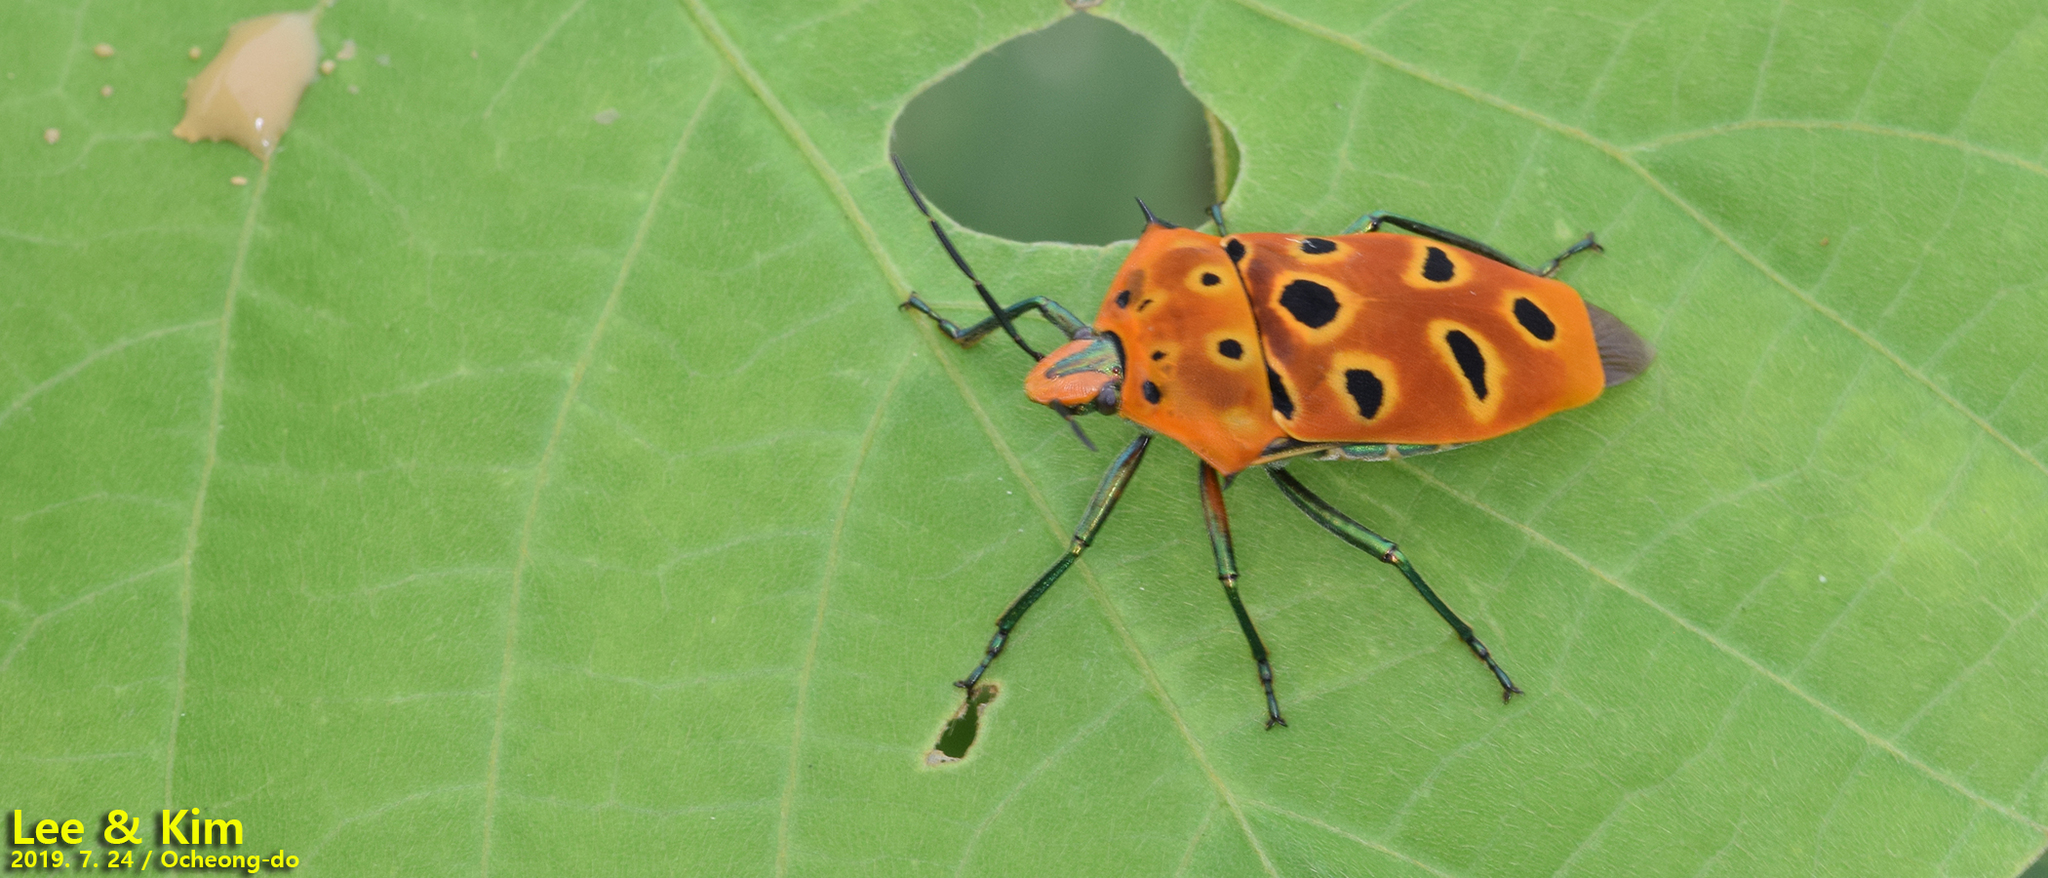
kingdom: Animalia
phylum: Arthropoda
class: Insecta
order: Hemiptera
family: Scutelleridae
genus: Cantao
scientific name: Cantao ocellatus
